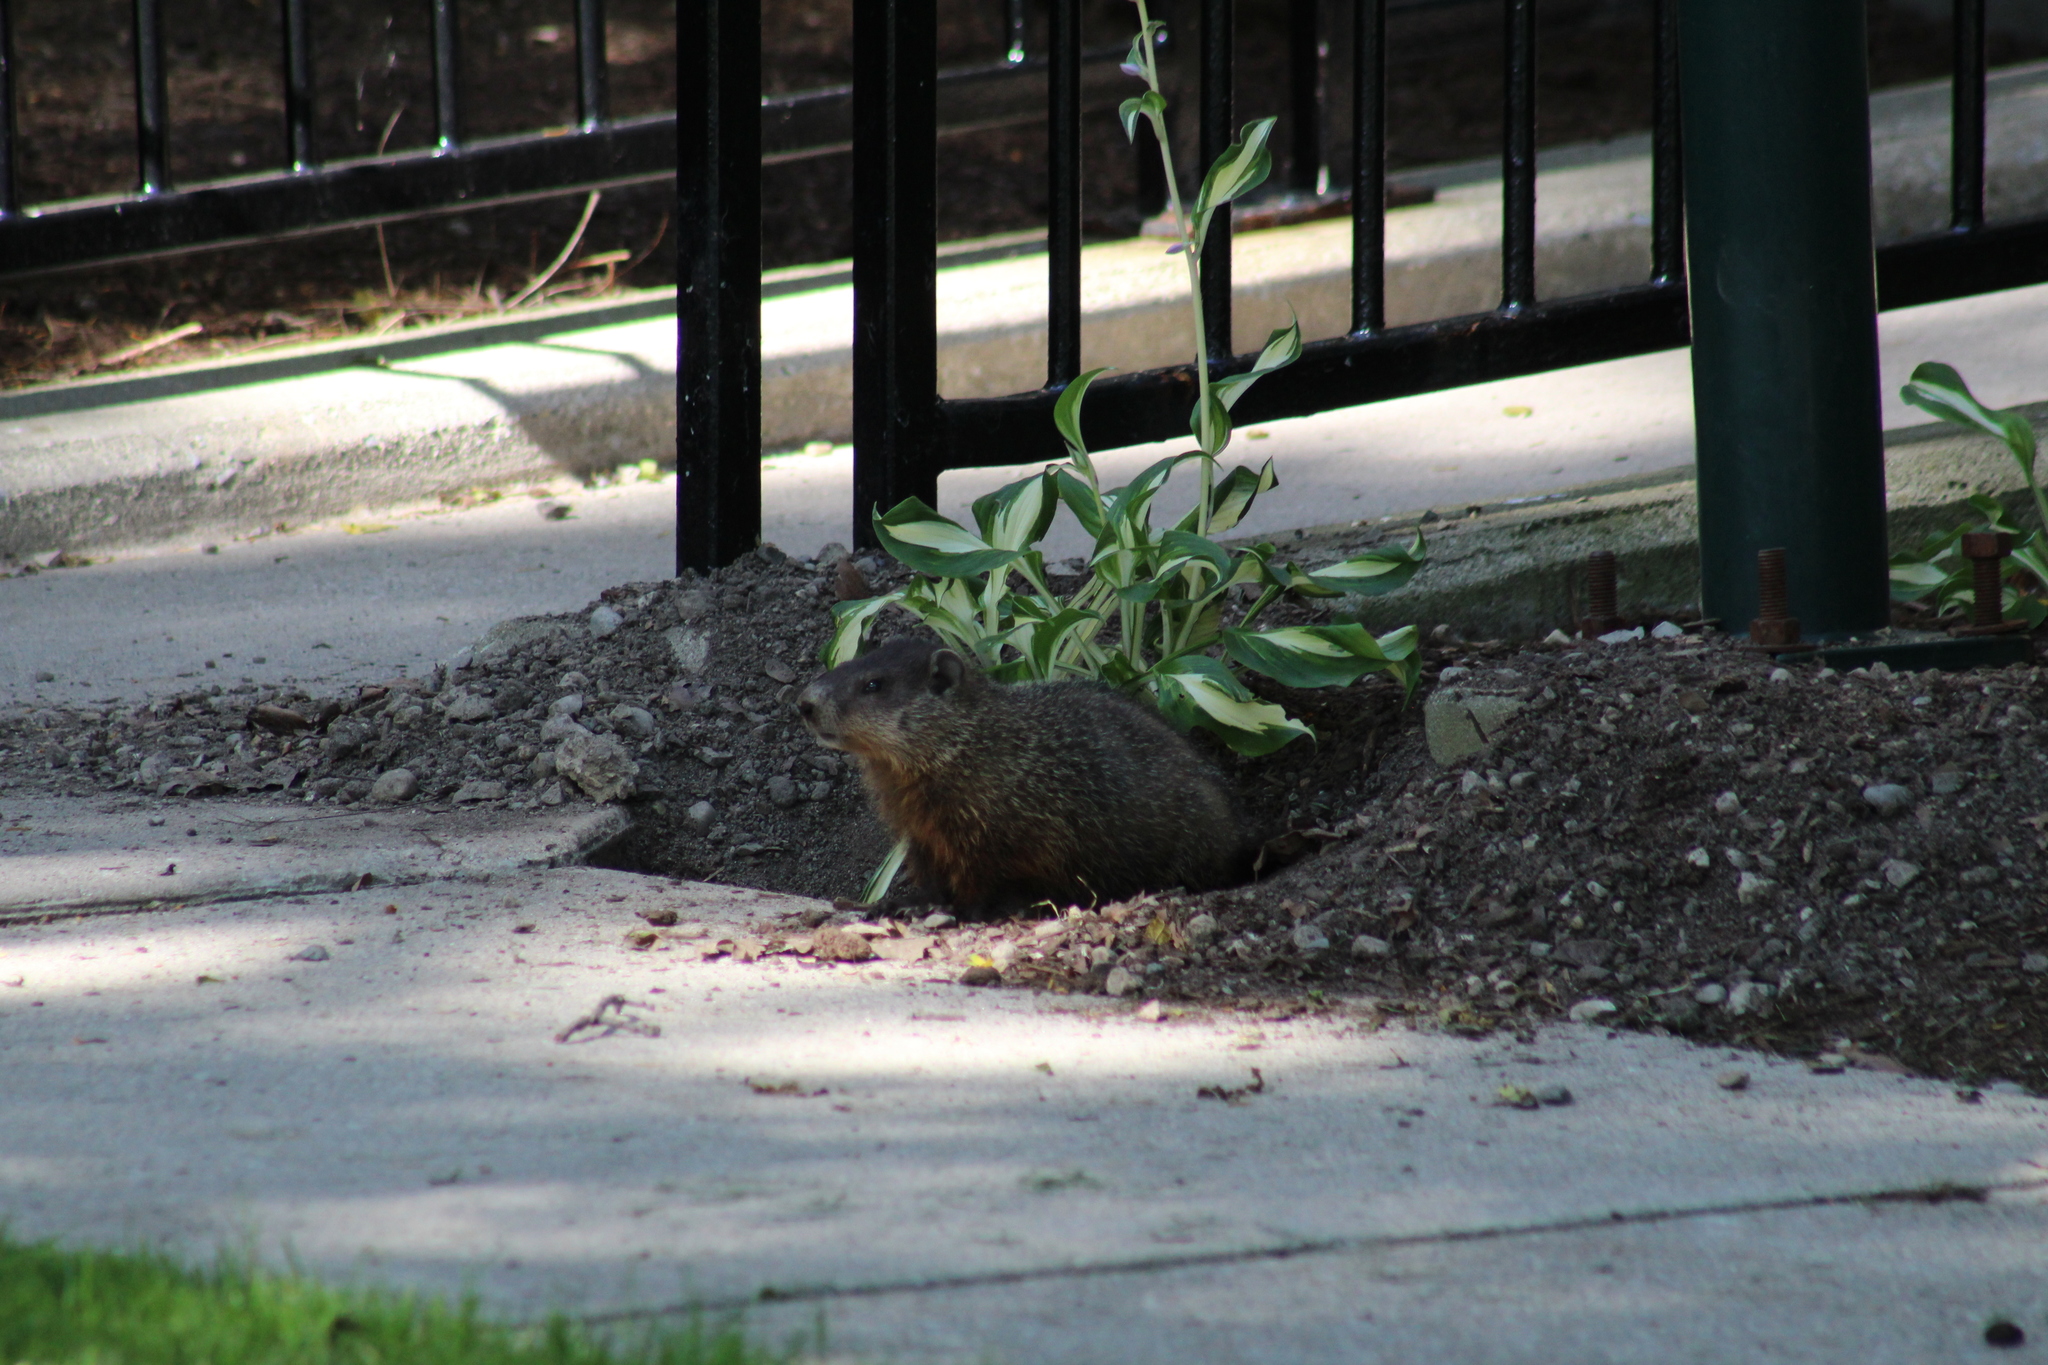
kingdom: Animalia
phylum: Chordata
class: Mammalia
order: Rodentia
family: Sciuridae
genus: Marmota
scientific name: Marmota monax
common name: Groundhog
